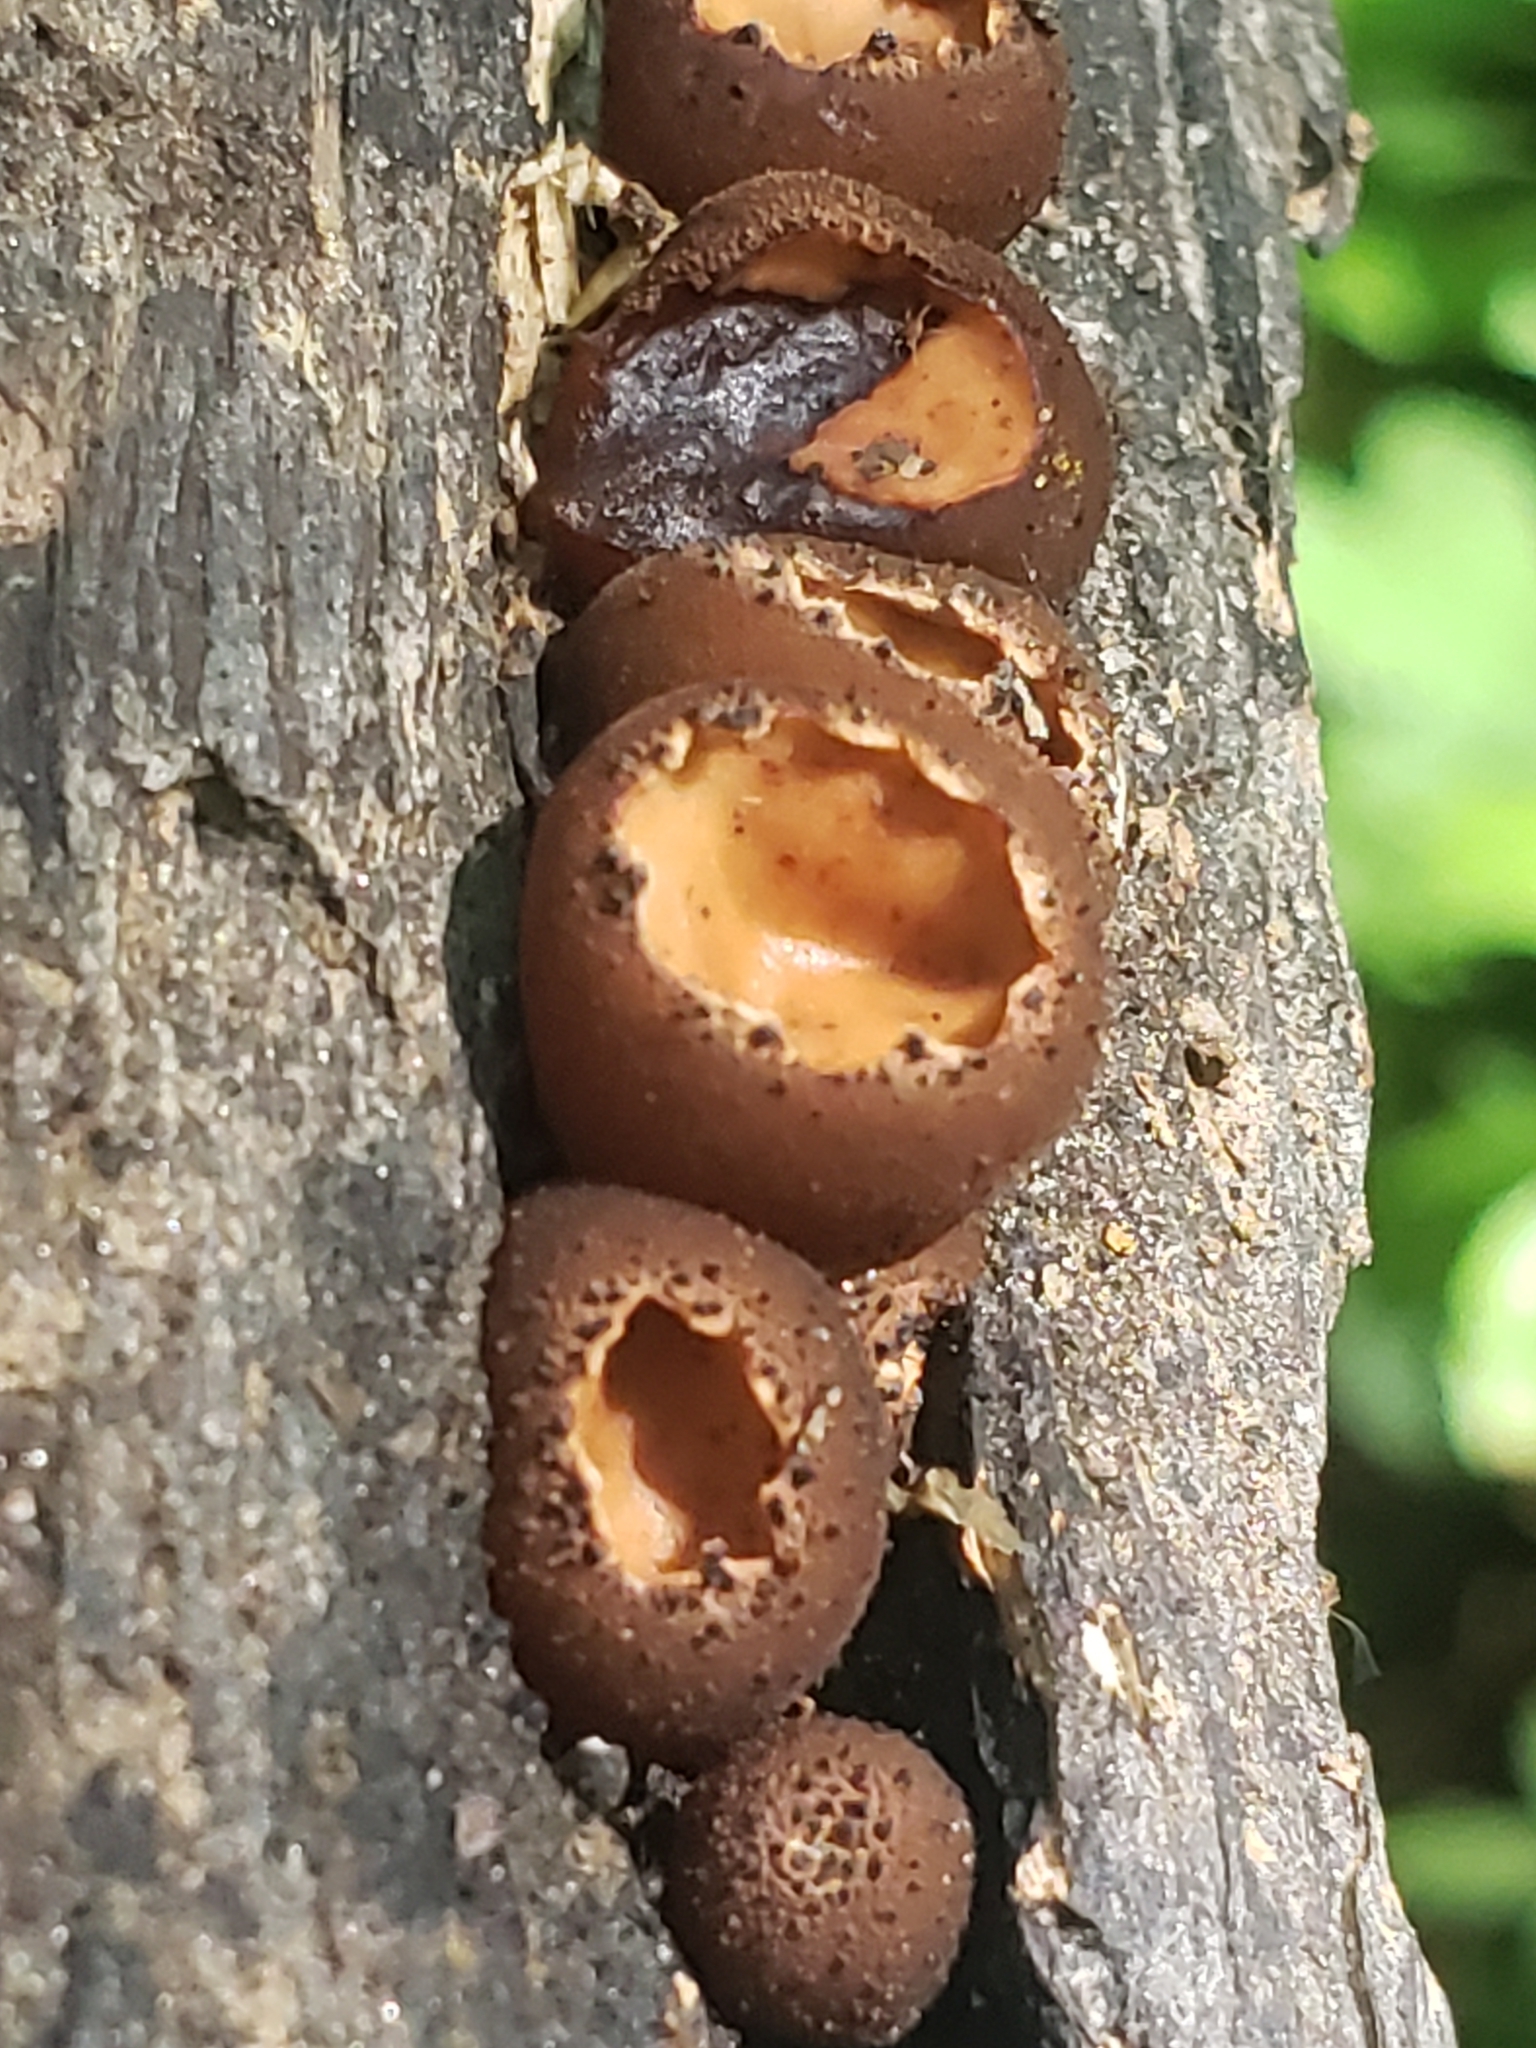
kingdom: Fungi
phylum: Ascomycota
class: Pezizomycetes
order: Pezizales
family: Sarcosomataceae
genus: Galiella
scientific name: Galiella rufa
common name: Hairy rubber cup
